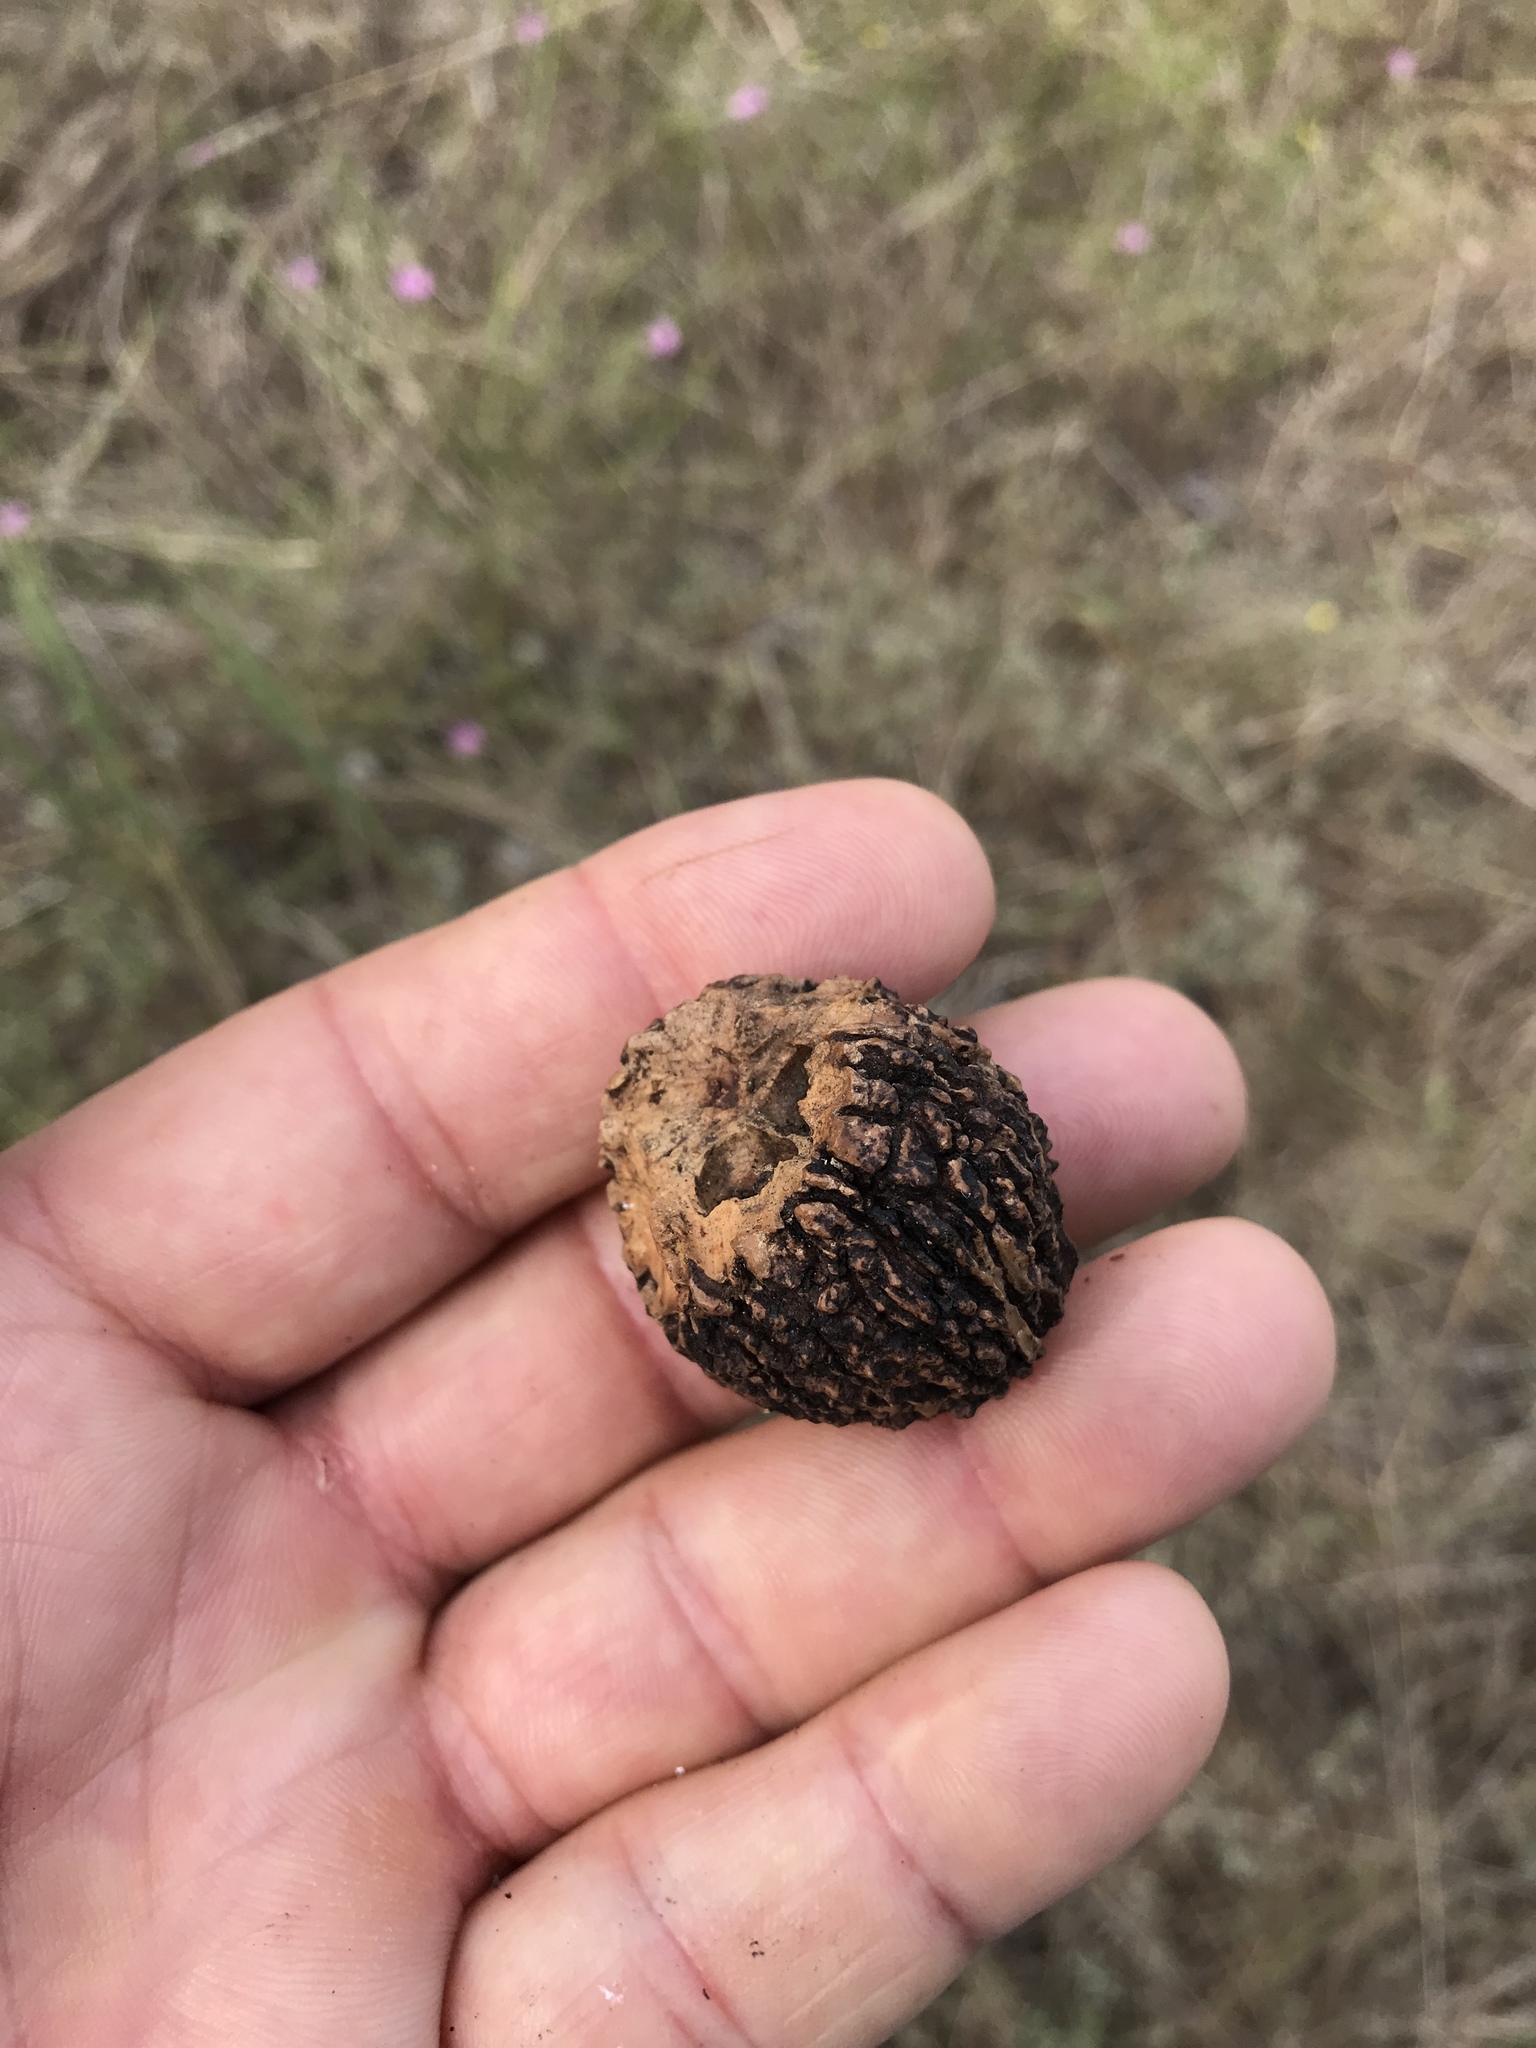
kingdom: Plantae
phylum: Tracheophyta
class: Magnoliopsida
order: Fagales
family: Juglandaceae
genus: Juglans
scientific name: Juglans nigra
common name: Black walnut
